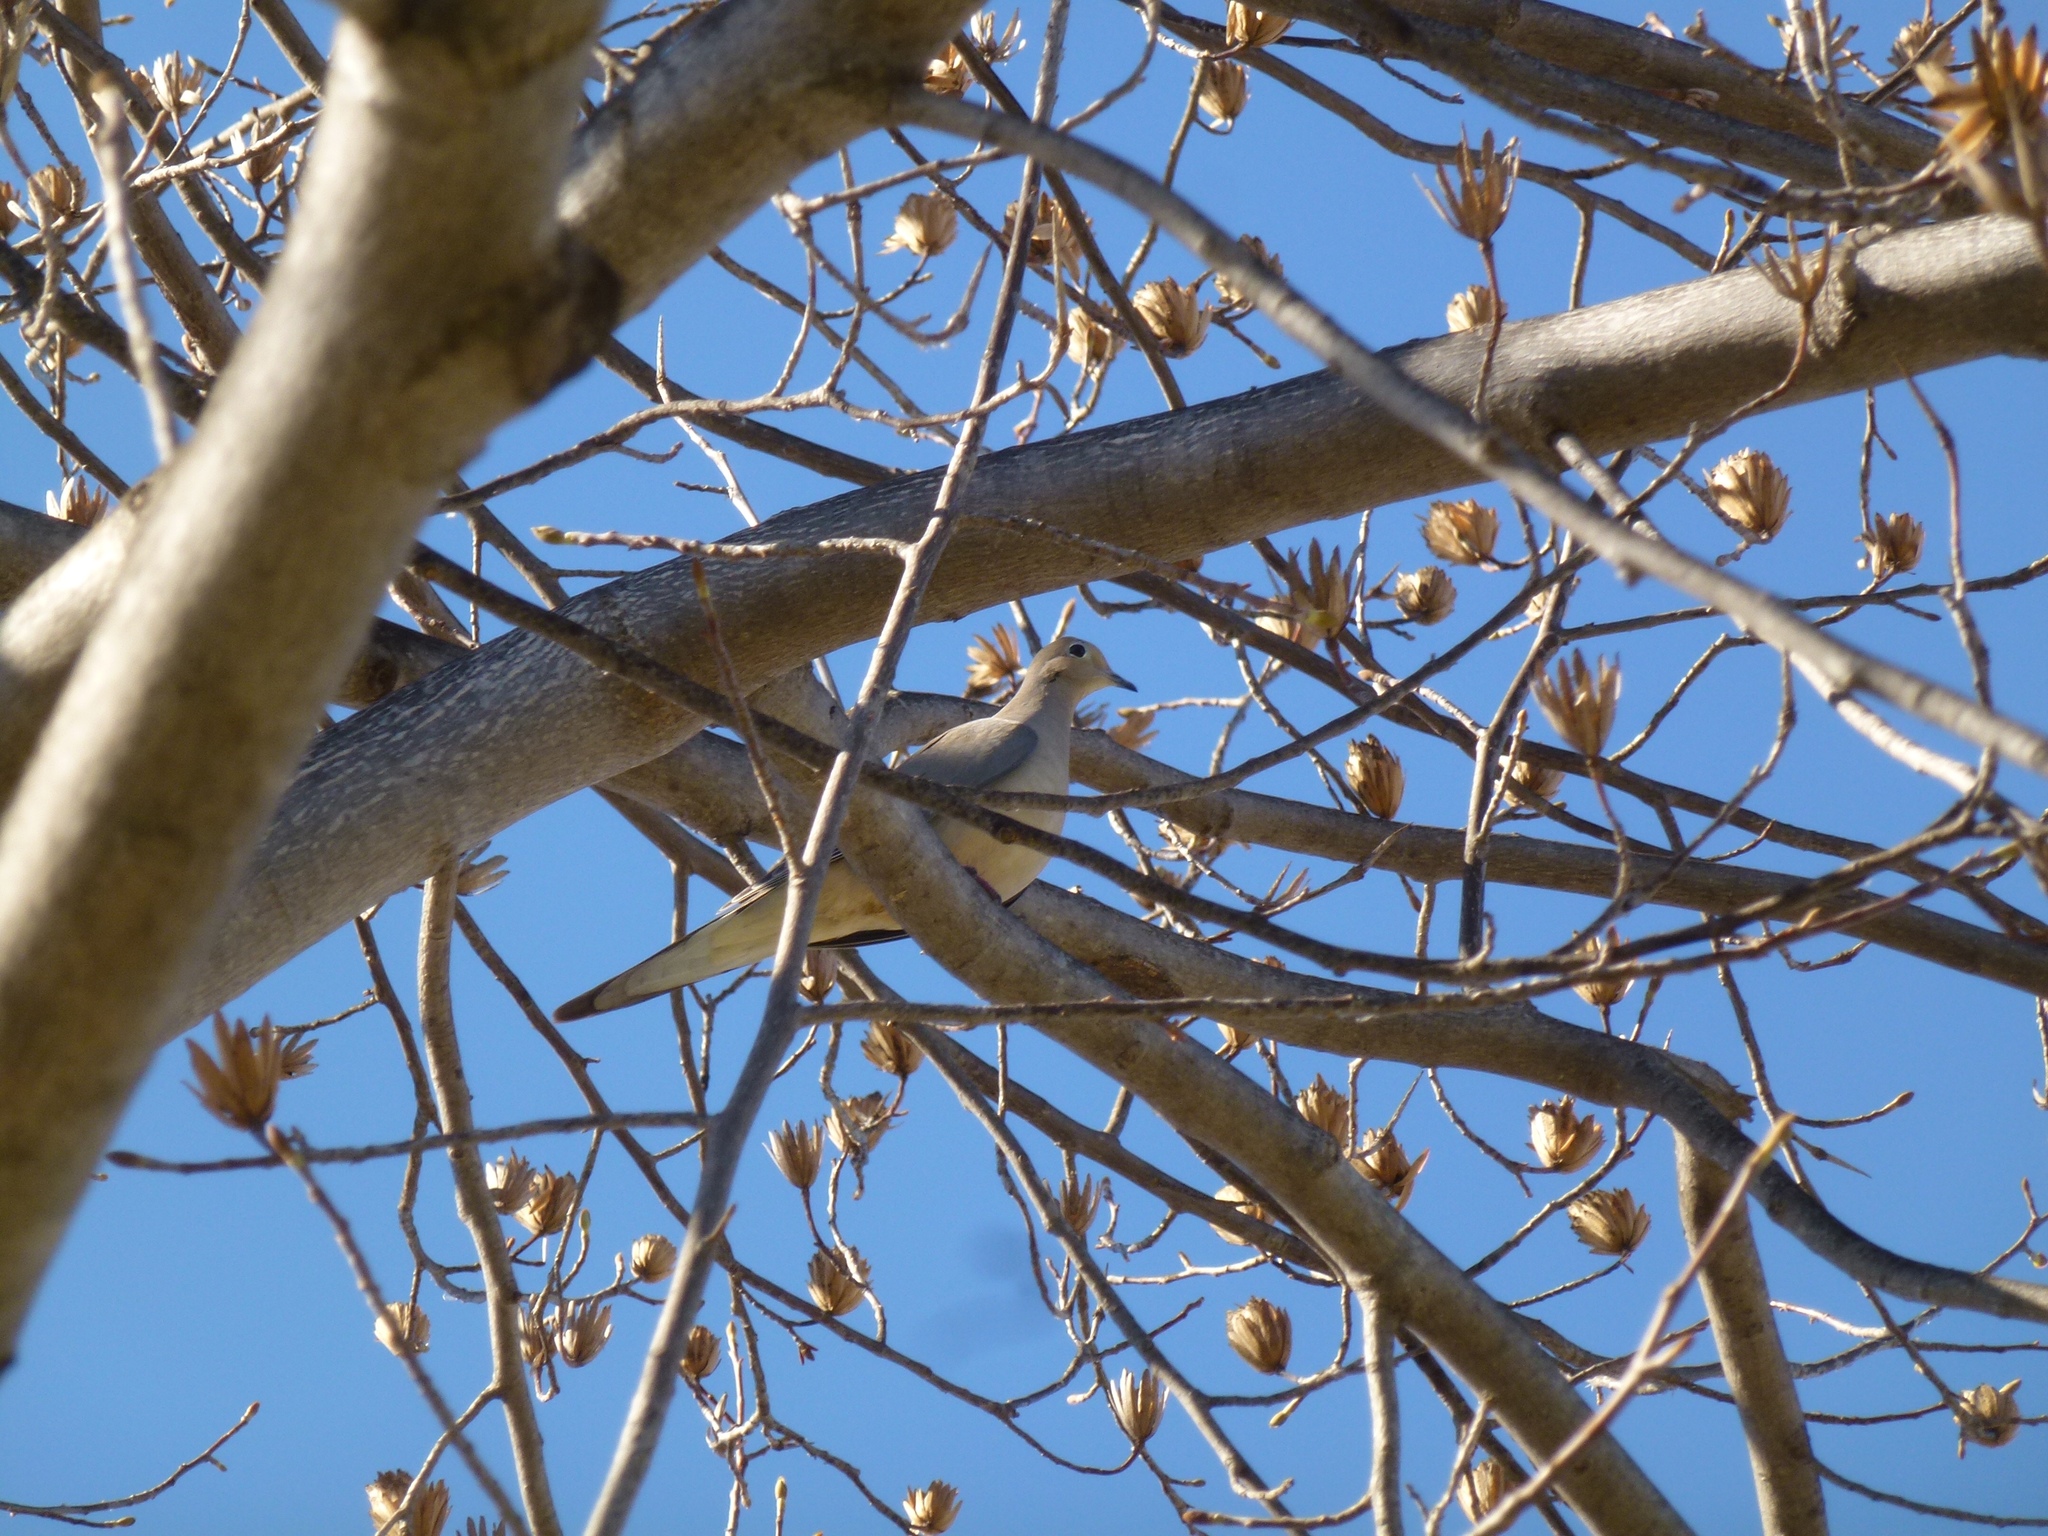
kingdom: Animalia
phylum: Chordata
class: Aves
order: Columbiformes
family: Columbidae
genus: Zenaida
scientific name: Zenaida macroura
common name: Mourning dove
